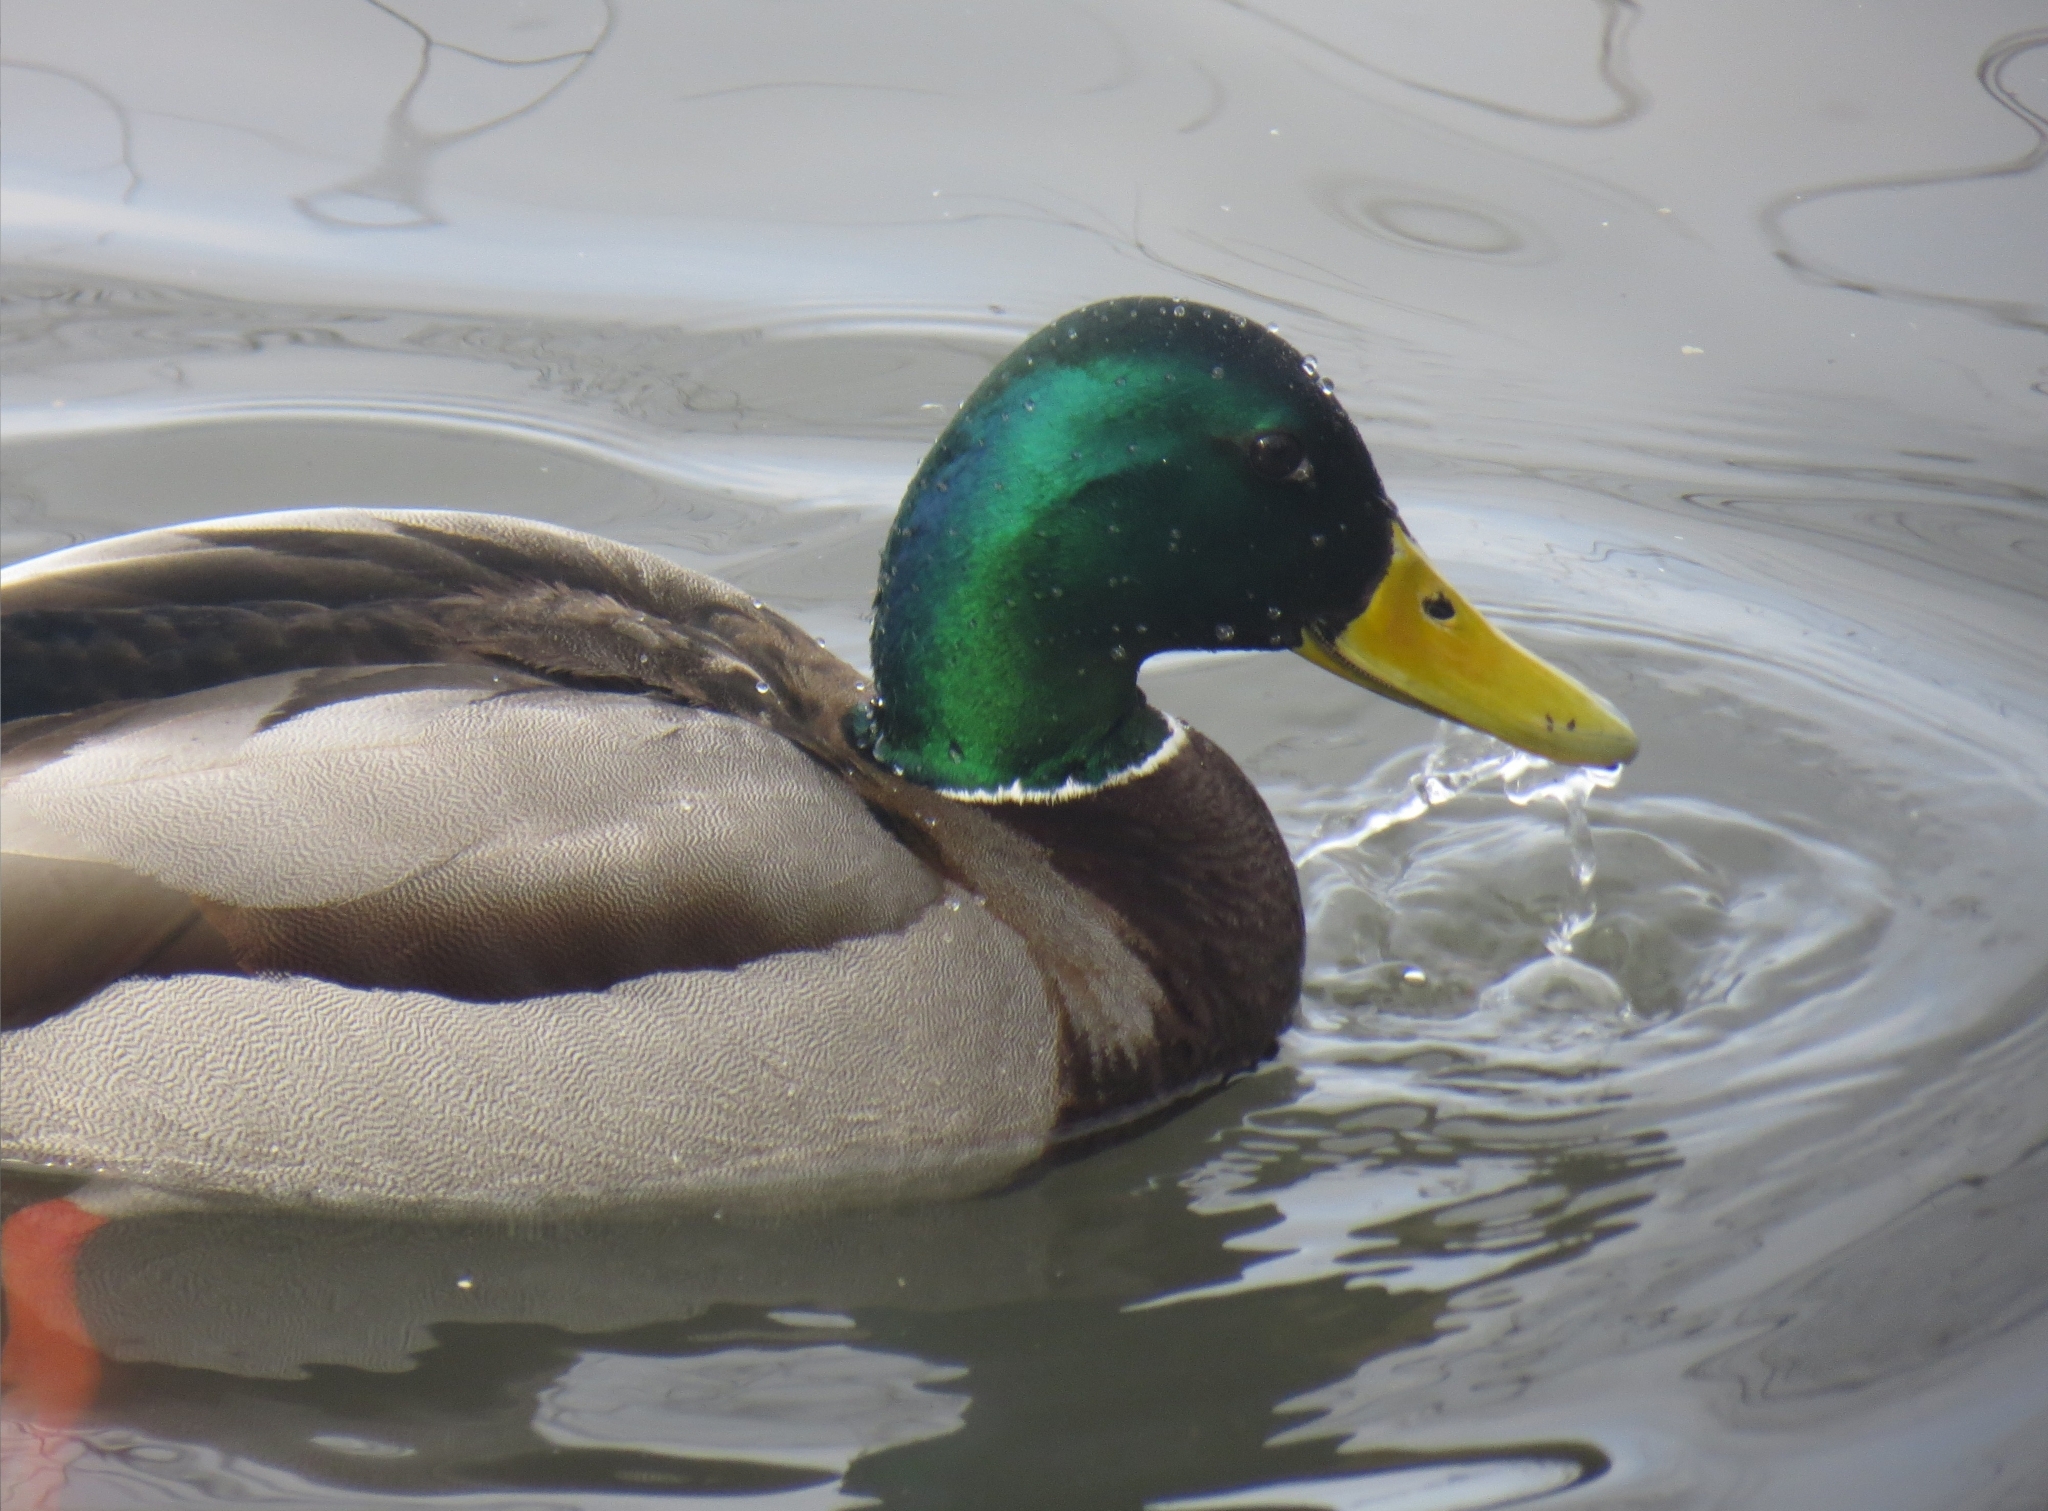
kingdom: Animalia
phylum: Chordata
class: Aves
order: Anseriformes
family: Anatidae
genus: Anas
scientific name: Anas platyrhynchos
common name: Mallard
